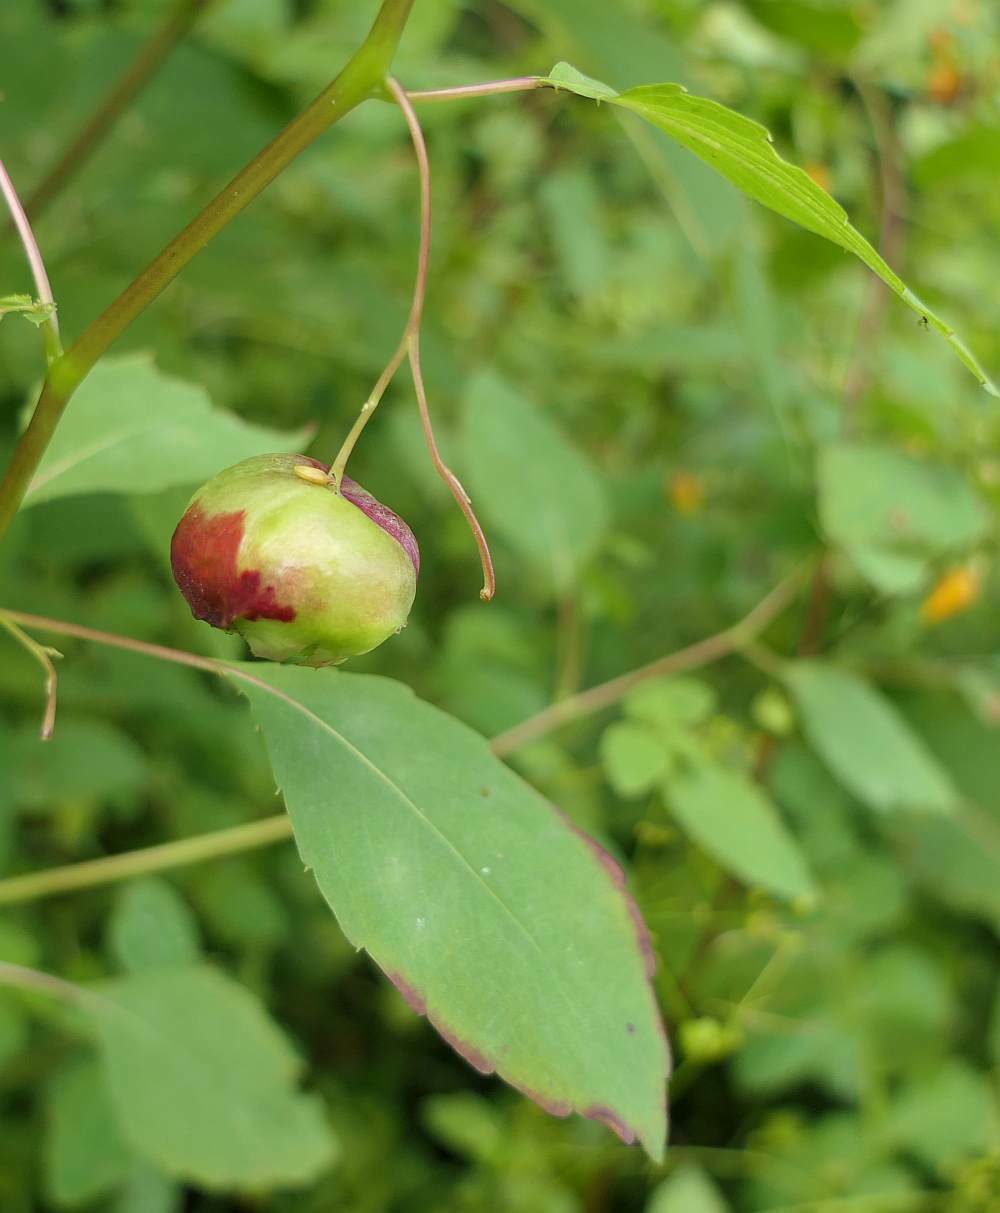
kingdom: Animalia
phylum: Arthropoda
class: Insecta
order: Diptera
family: Cecidomyiidae
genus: Schizomyia
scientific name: Schizomyia impatientis
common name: Jewelweed gall midge
